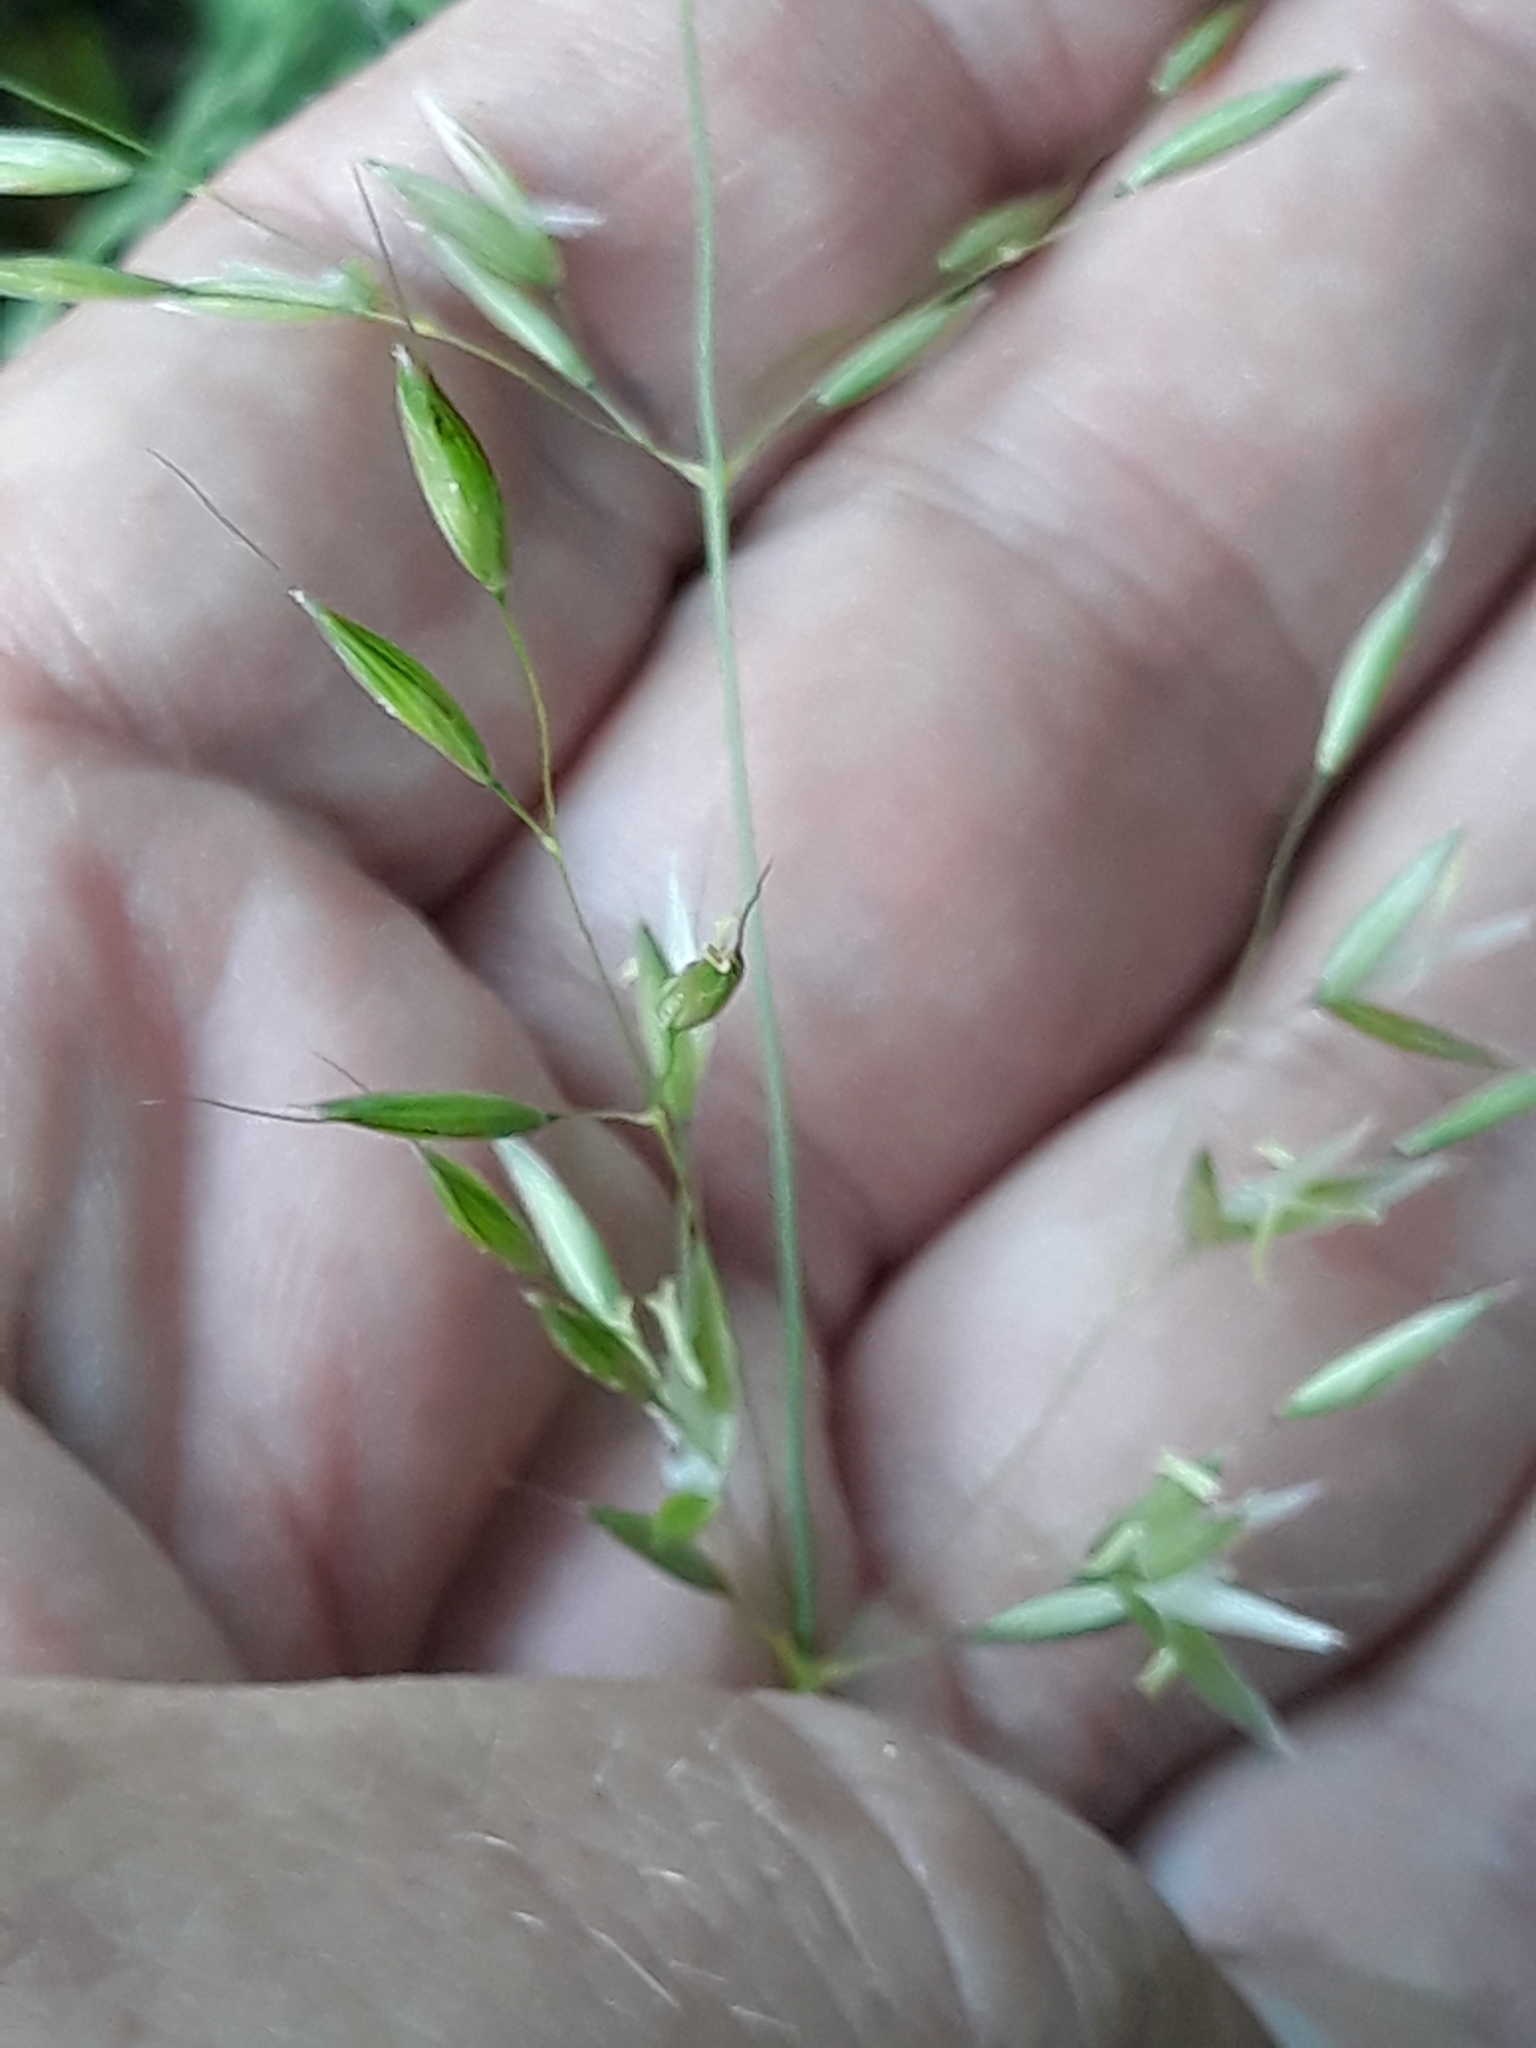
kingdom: Plantae
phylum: Tracheophyta
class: Liliopsida
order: Poales
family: Poaceae
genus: Arrhenatherum
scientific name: Arrhenatherum elatius
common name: Tall oatgrass
